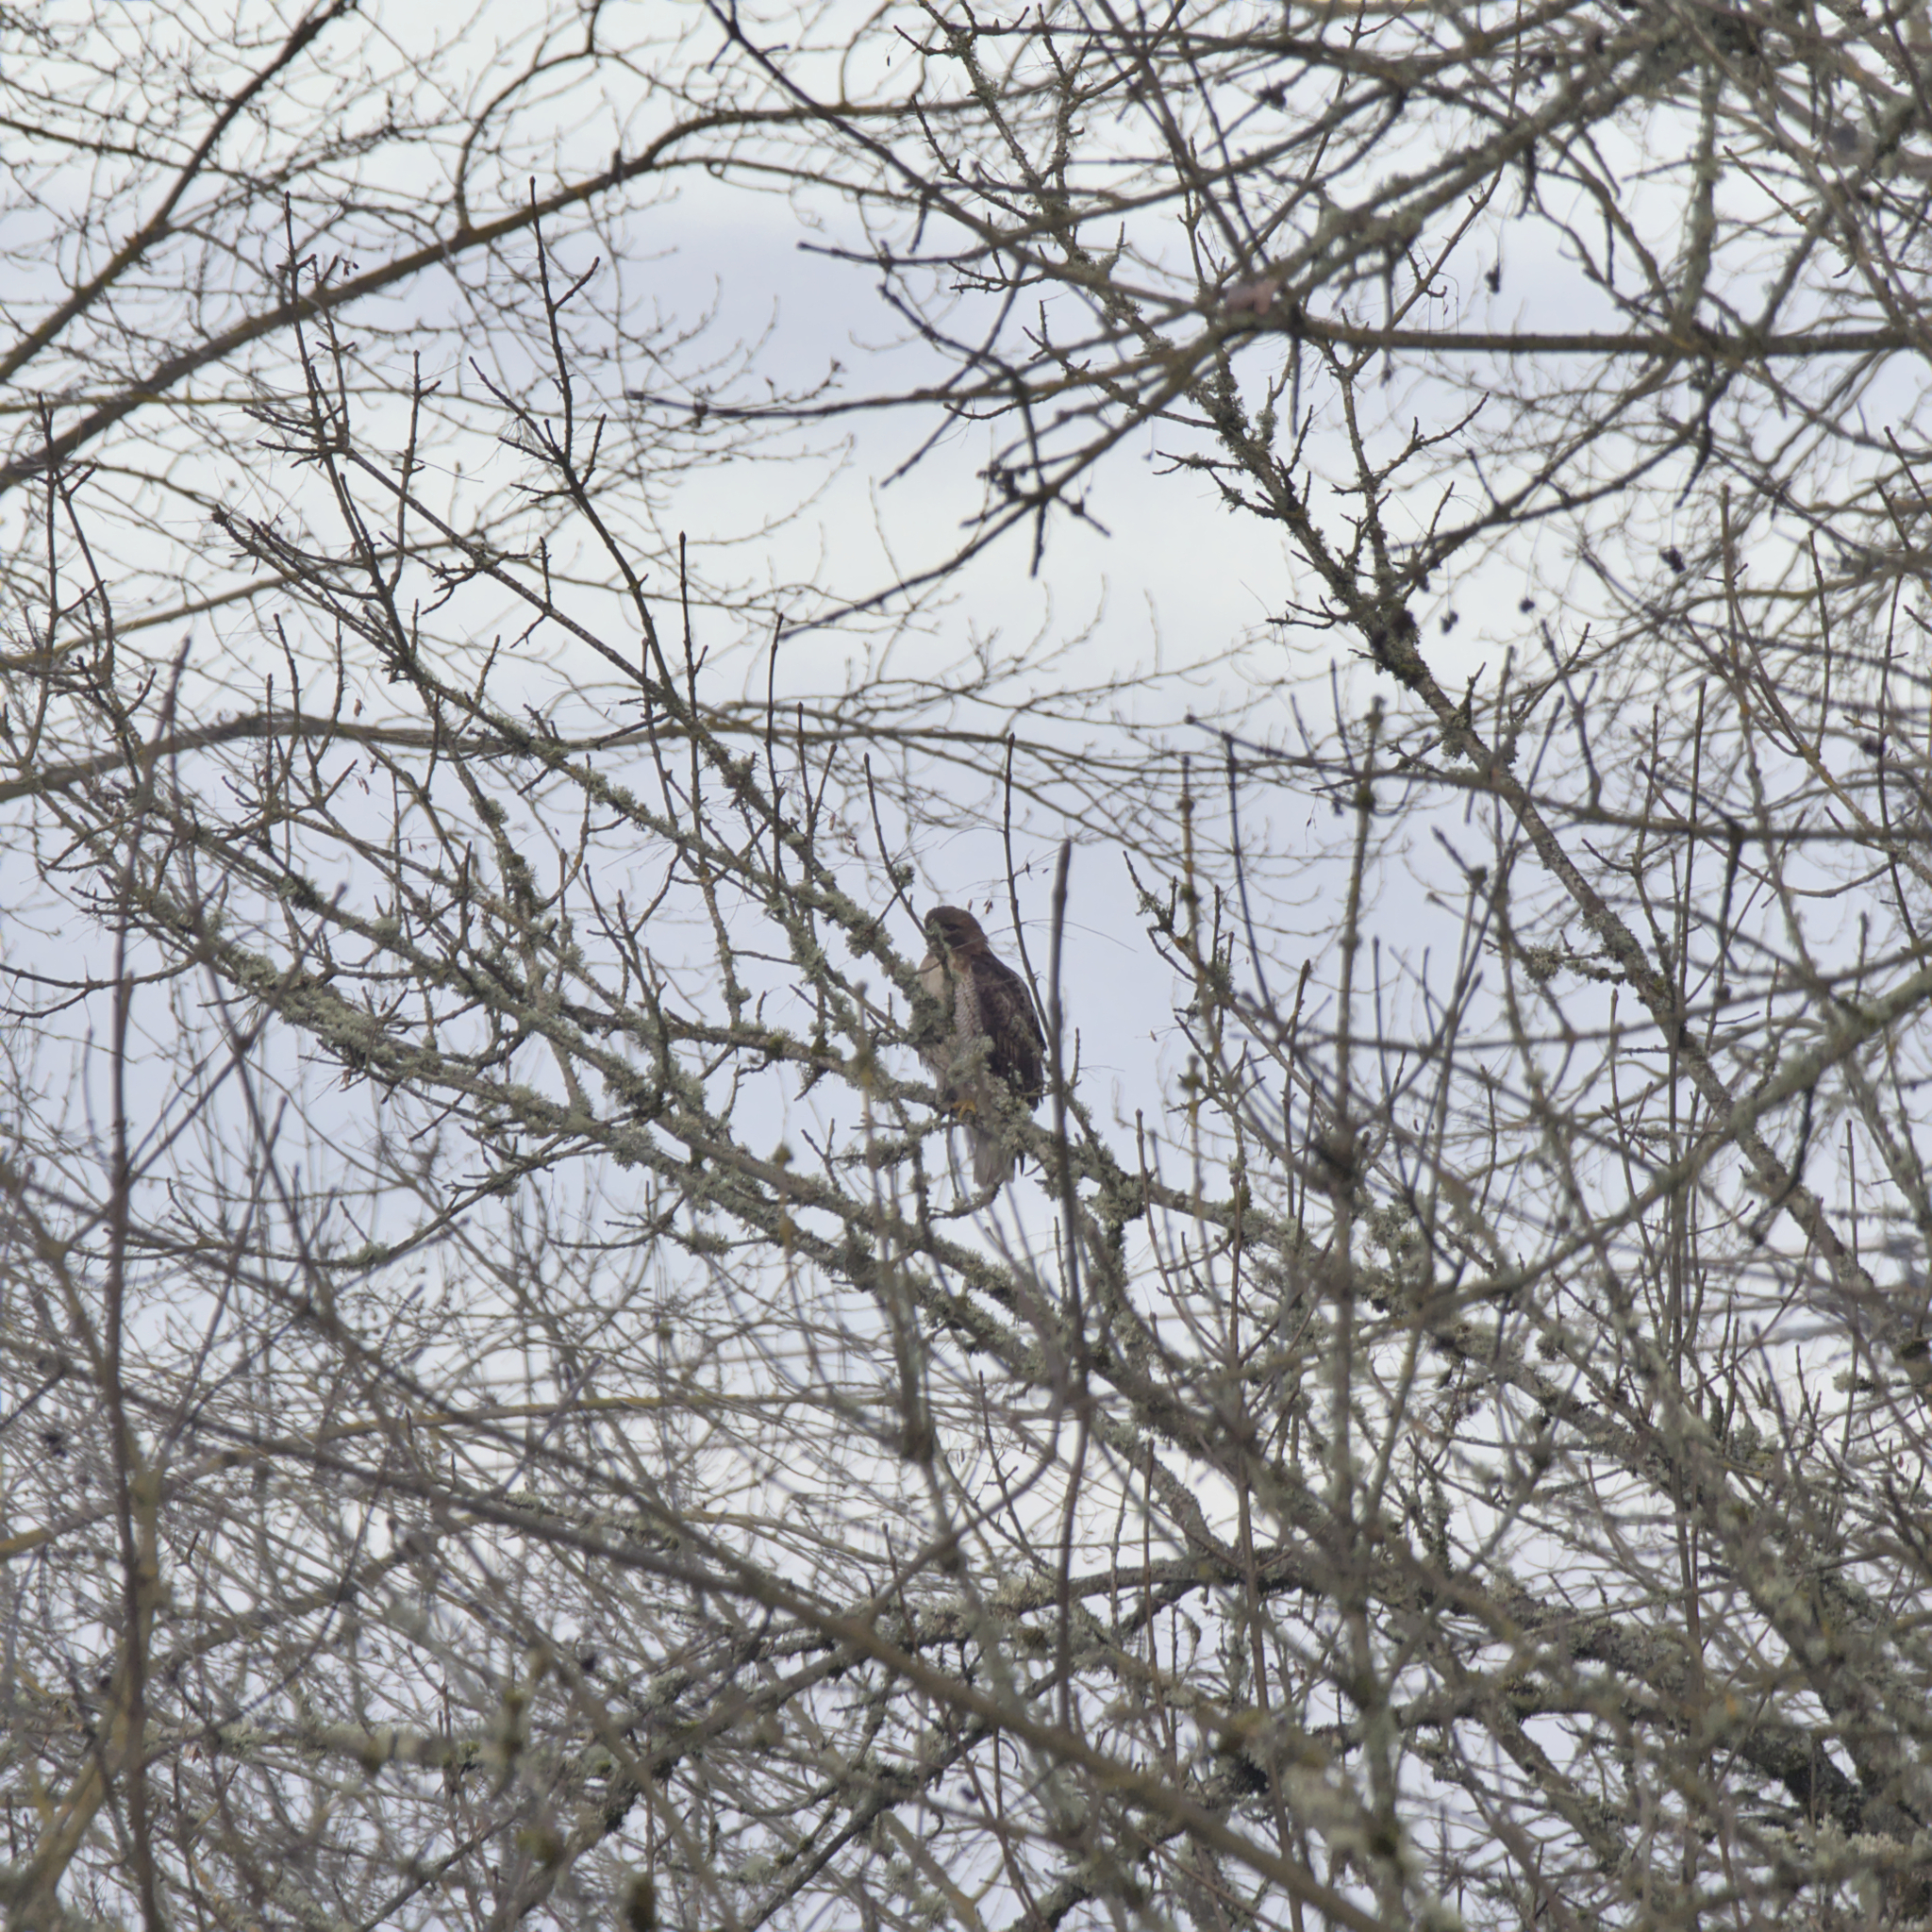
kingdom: Animalia
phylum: Chordata
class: Aves
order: Accipitriformes
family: Accipitridae
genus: Buteo
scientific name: Buteo jamaicensis
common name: Red-tailed hawk
